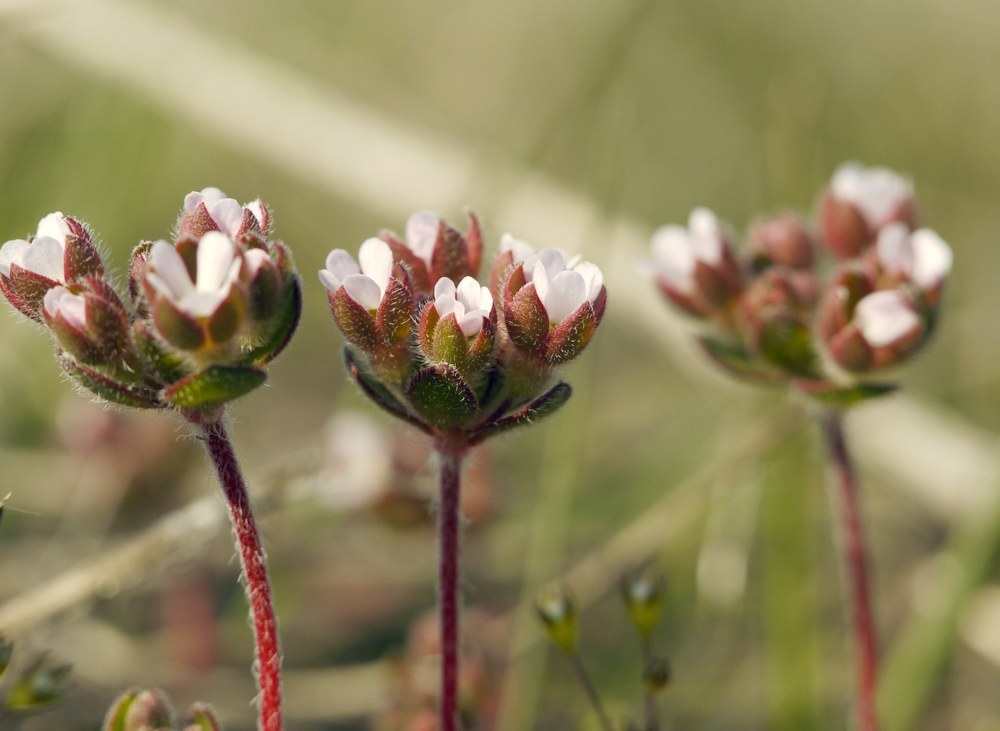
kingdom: Plantae
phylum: Tracheophyta
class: Magnoliopsida
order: Ericales
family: Primulaceae
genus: Androsace
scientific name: Androsace maxima
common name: Annual androsace
